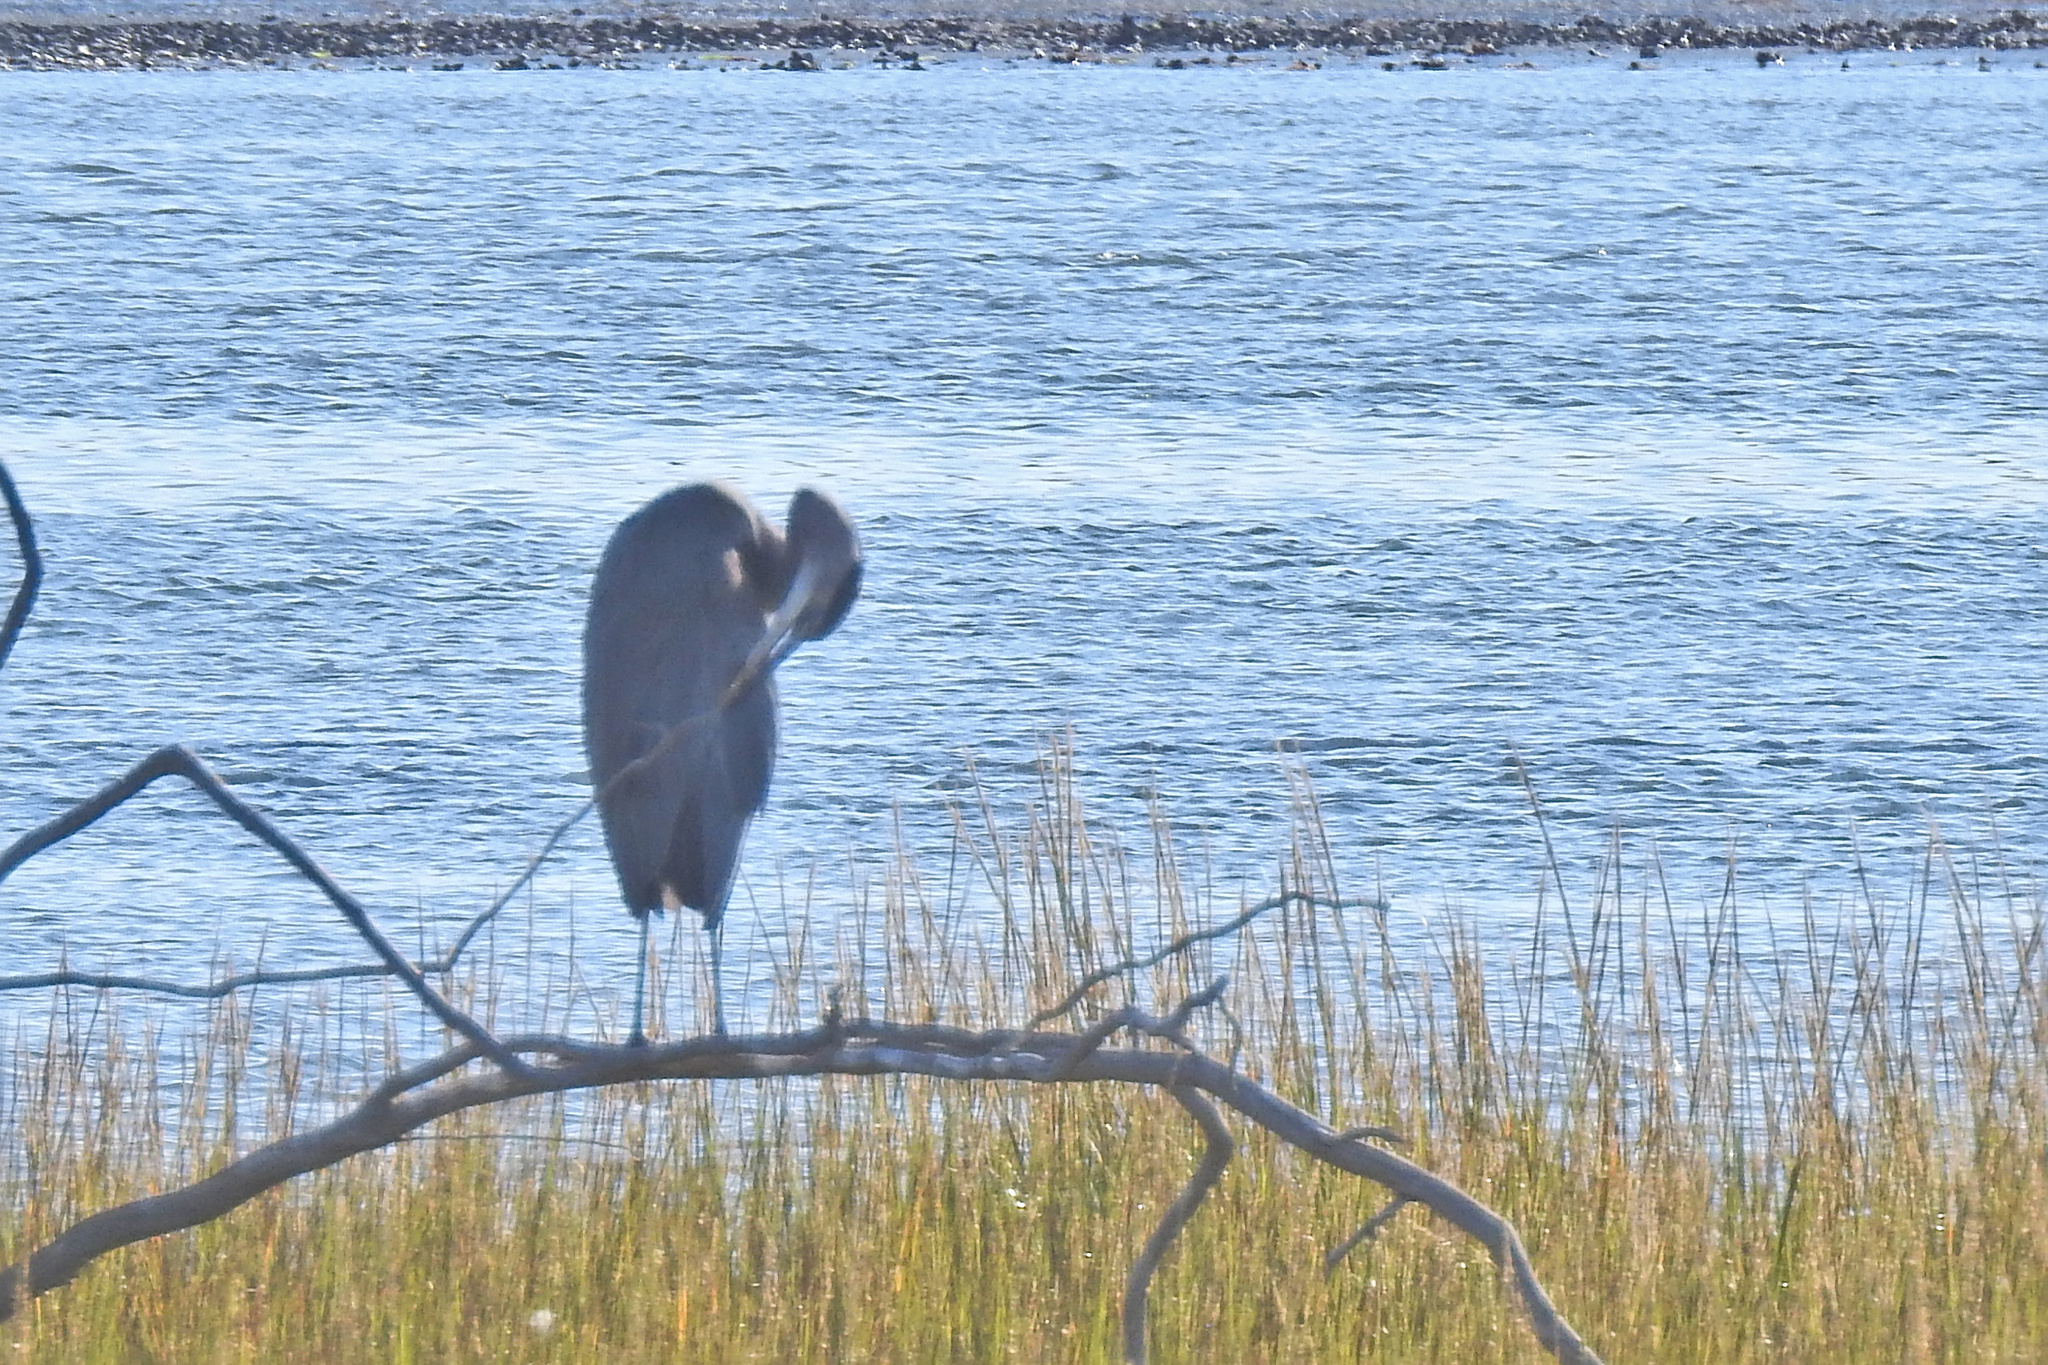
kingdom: Animalia
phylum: Chordata
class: Aves
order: Pelecaniformes
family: Ardeidae
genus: Ardea
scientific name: Ardea herodias
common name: Great blue heron
